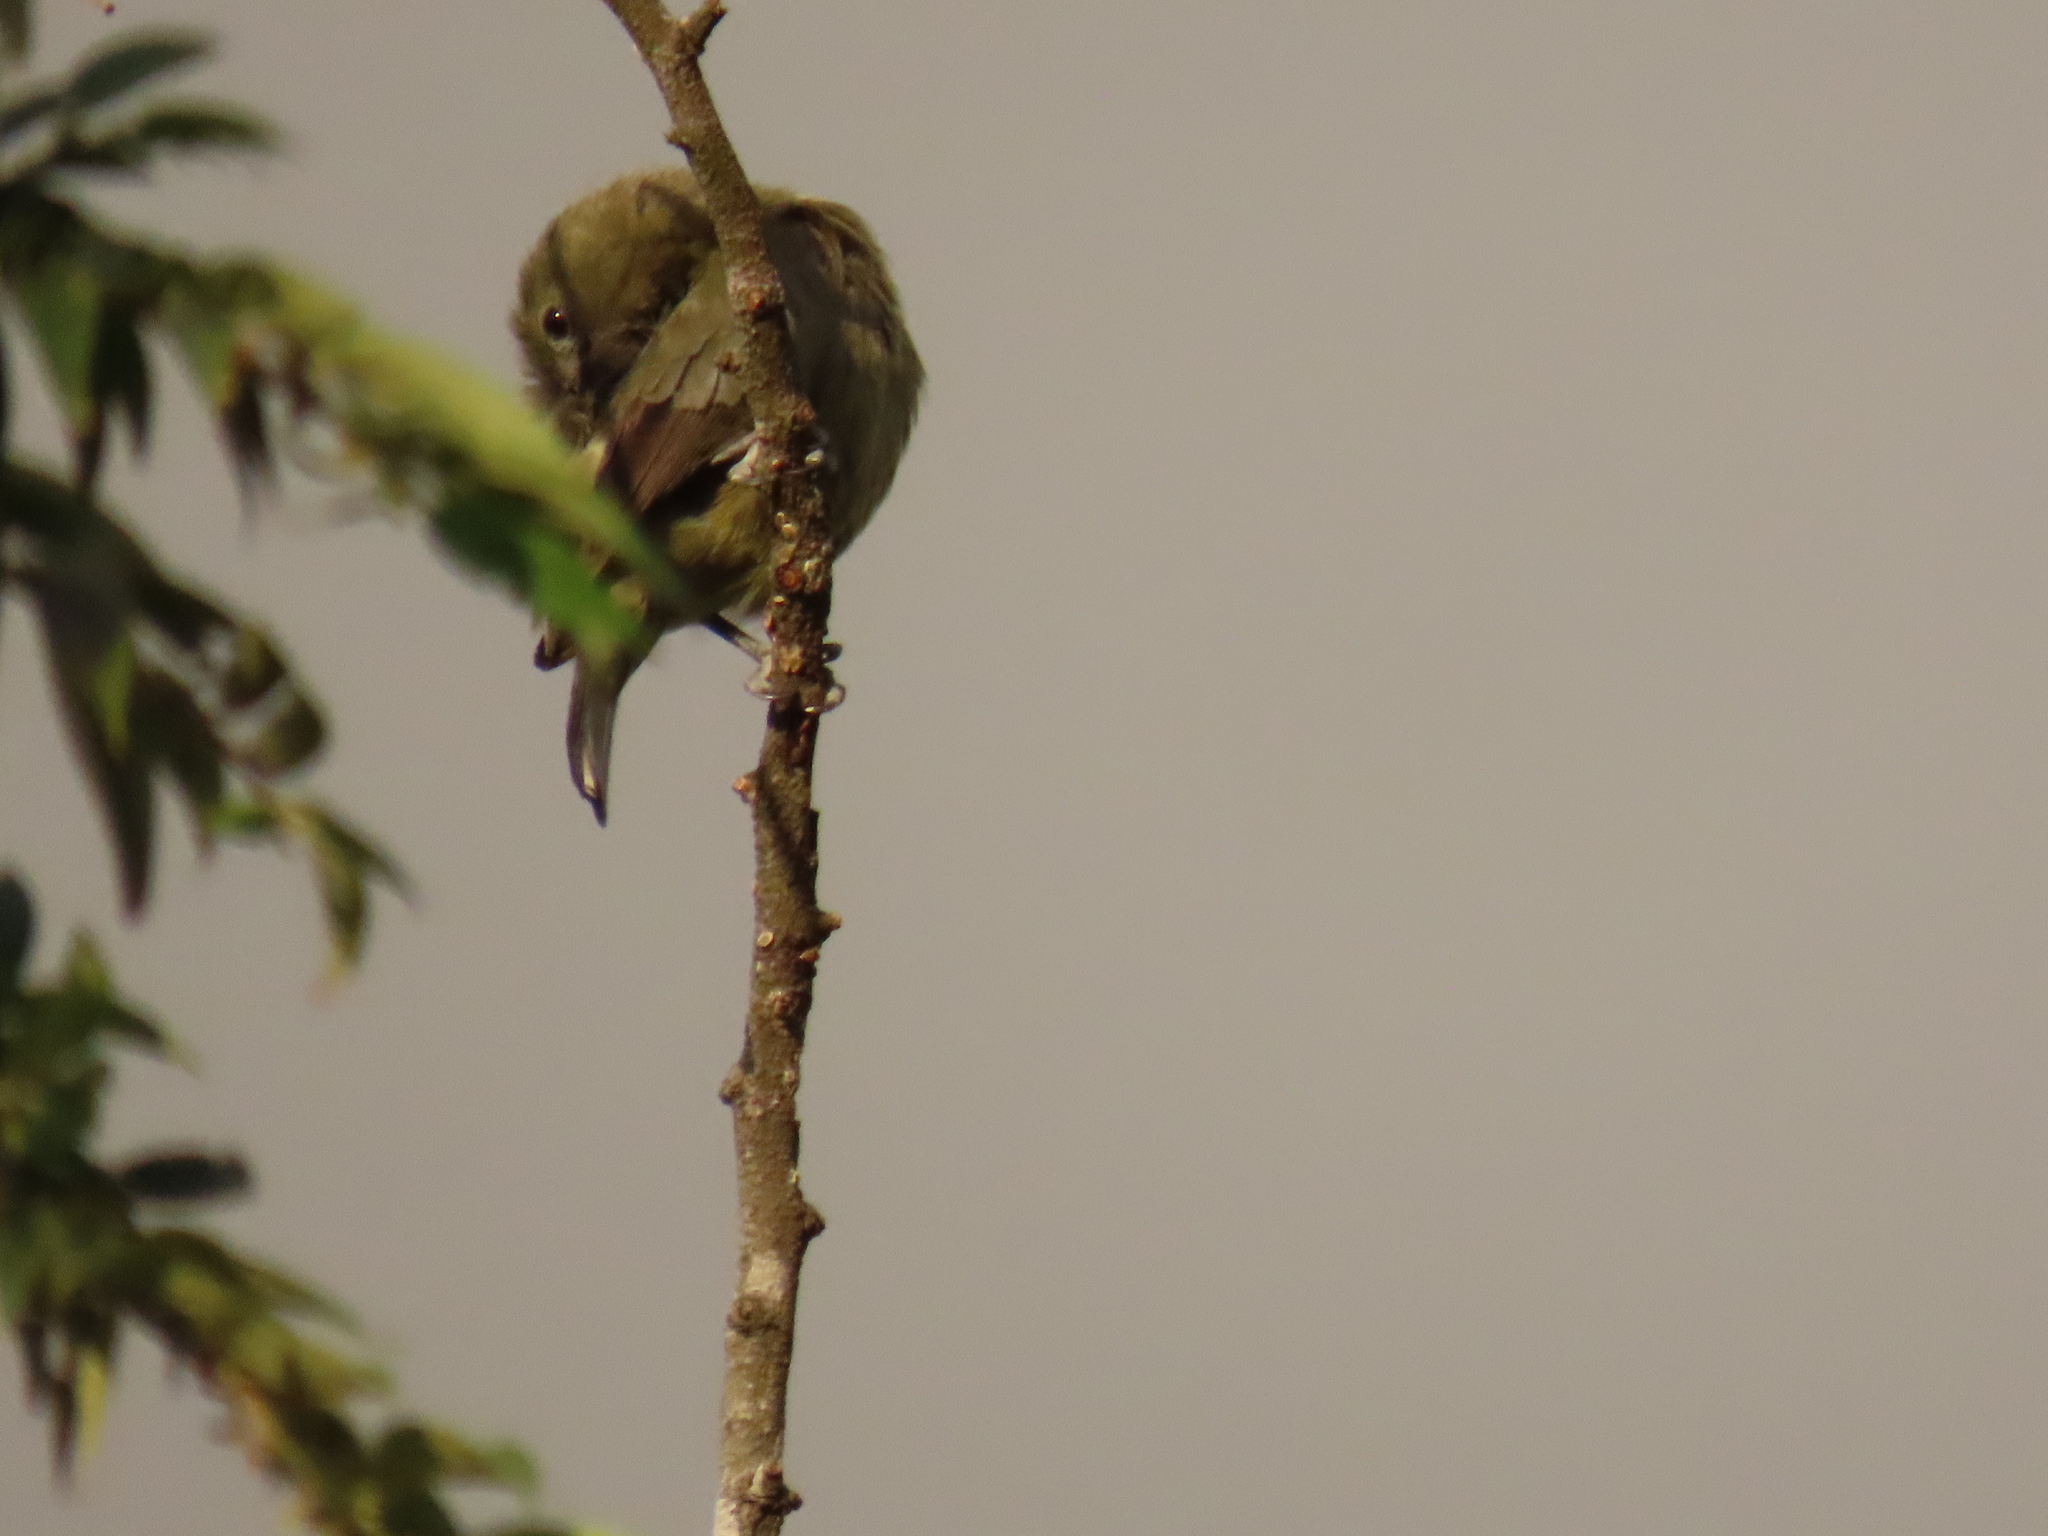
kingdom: Animalia
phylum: Chordata
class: Aves
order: Passeriformes
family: Thraupidae
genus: Thraupis
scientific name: Thraupis palmarum
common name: Palm tanager
